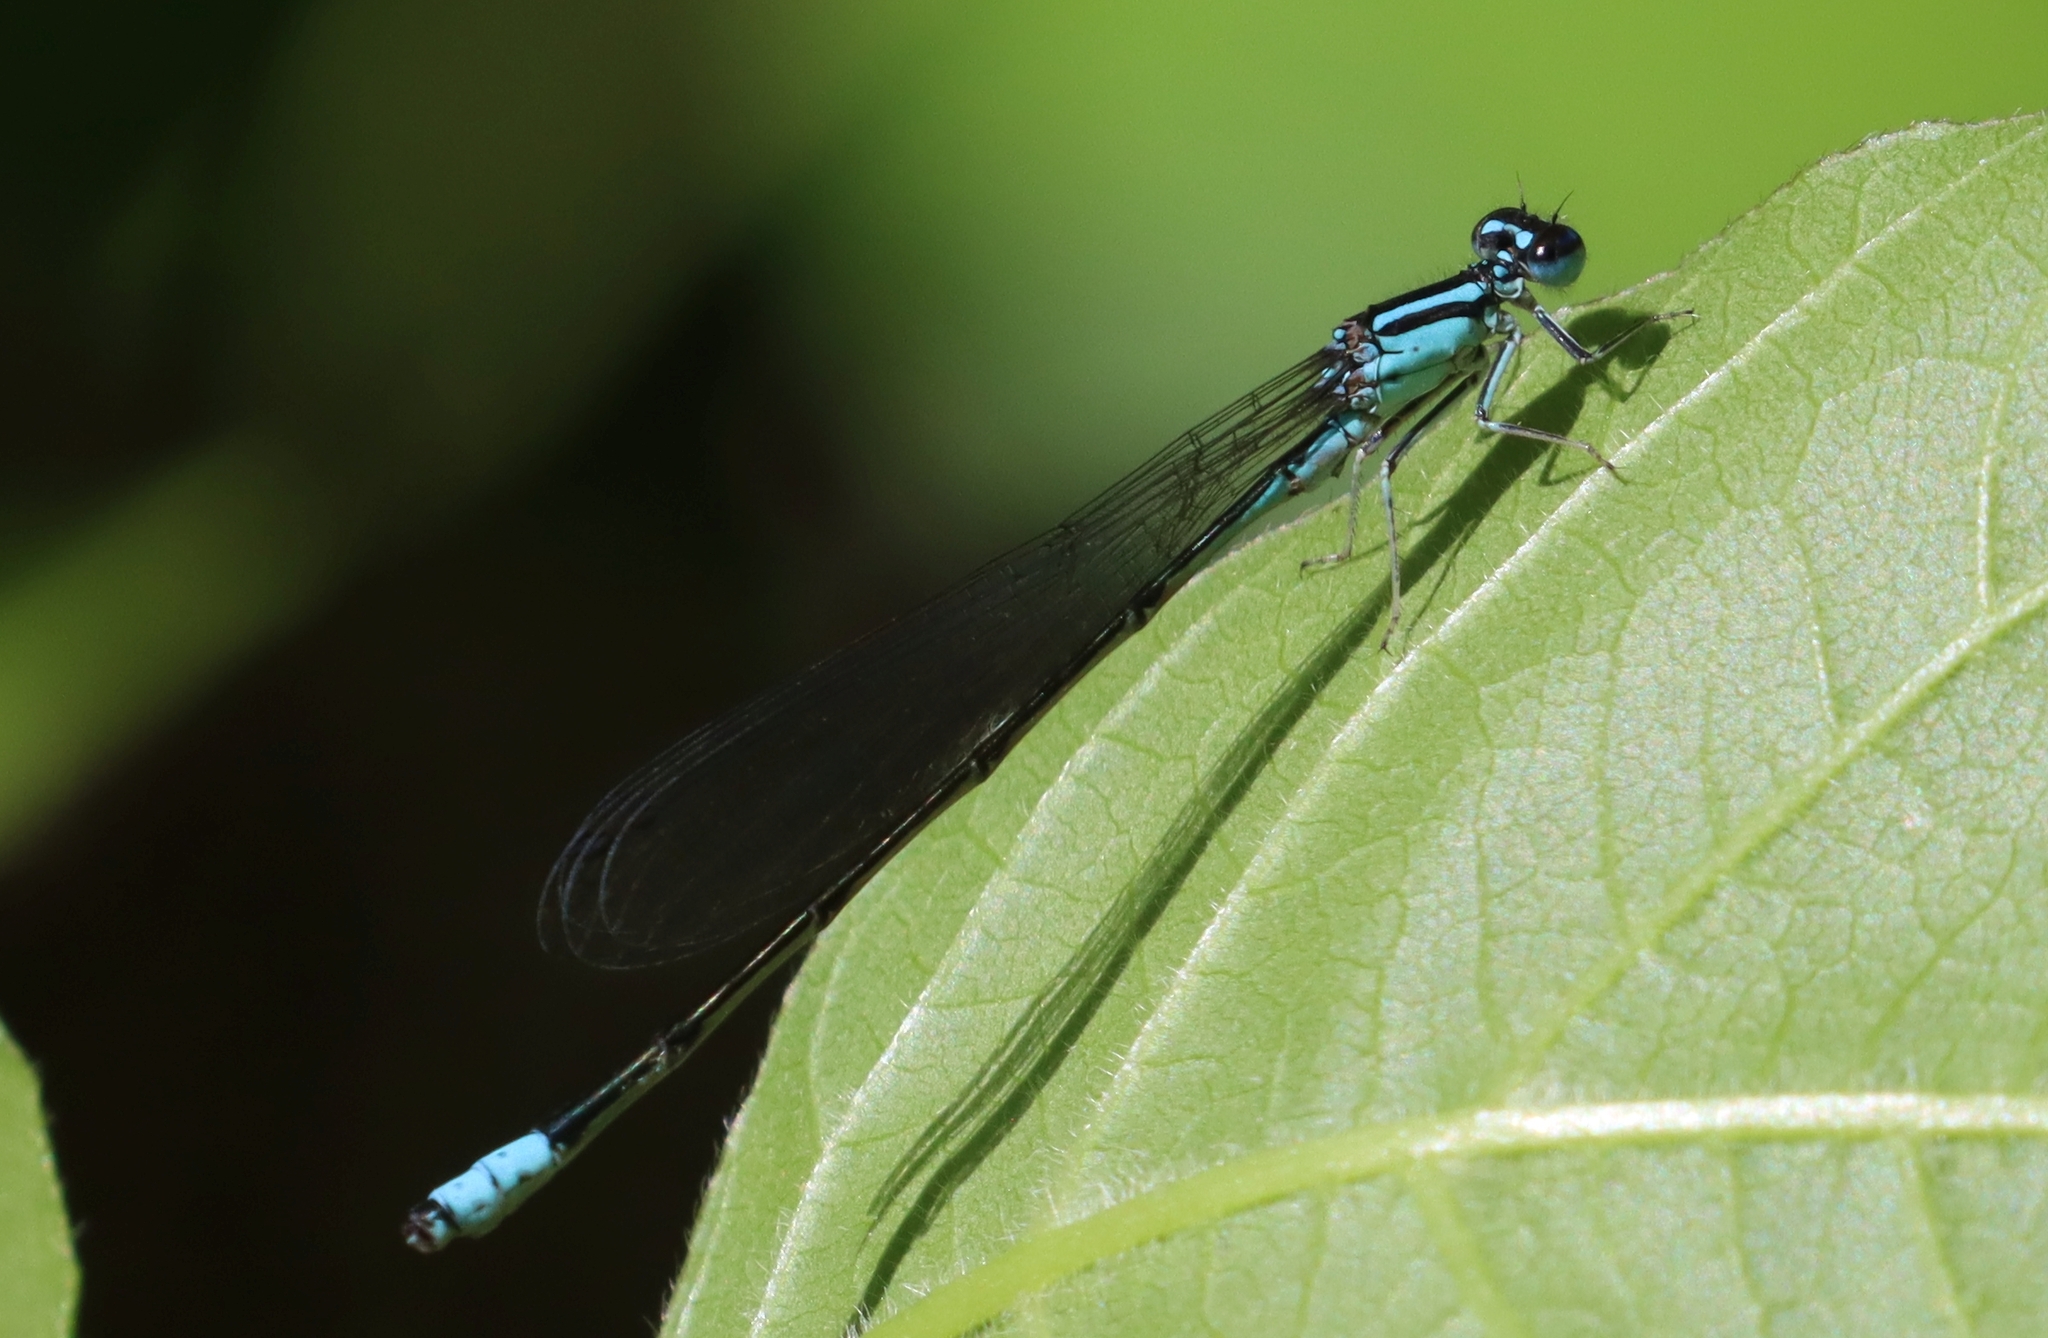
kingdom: Animalia
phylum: Arthropoda
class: Insecta
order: Odonata
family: Coenagrionidae
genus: Enallagma
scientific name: Enallagma divagans
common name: Turquoise bluet
